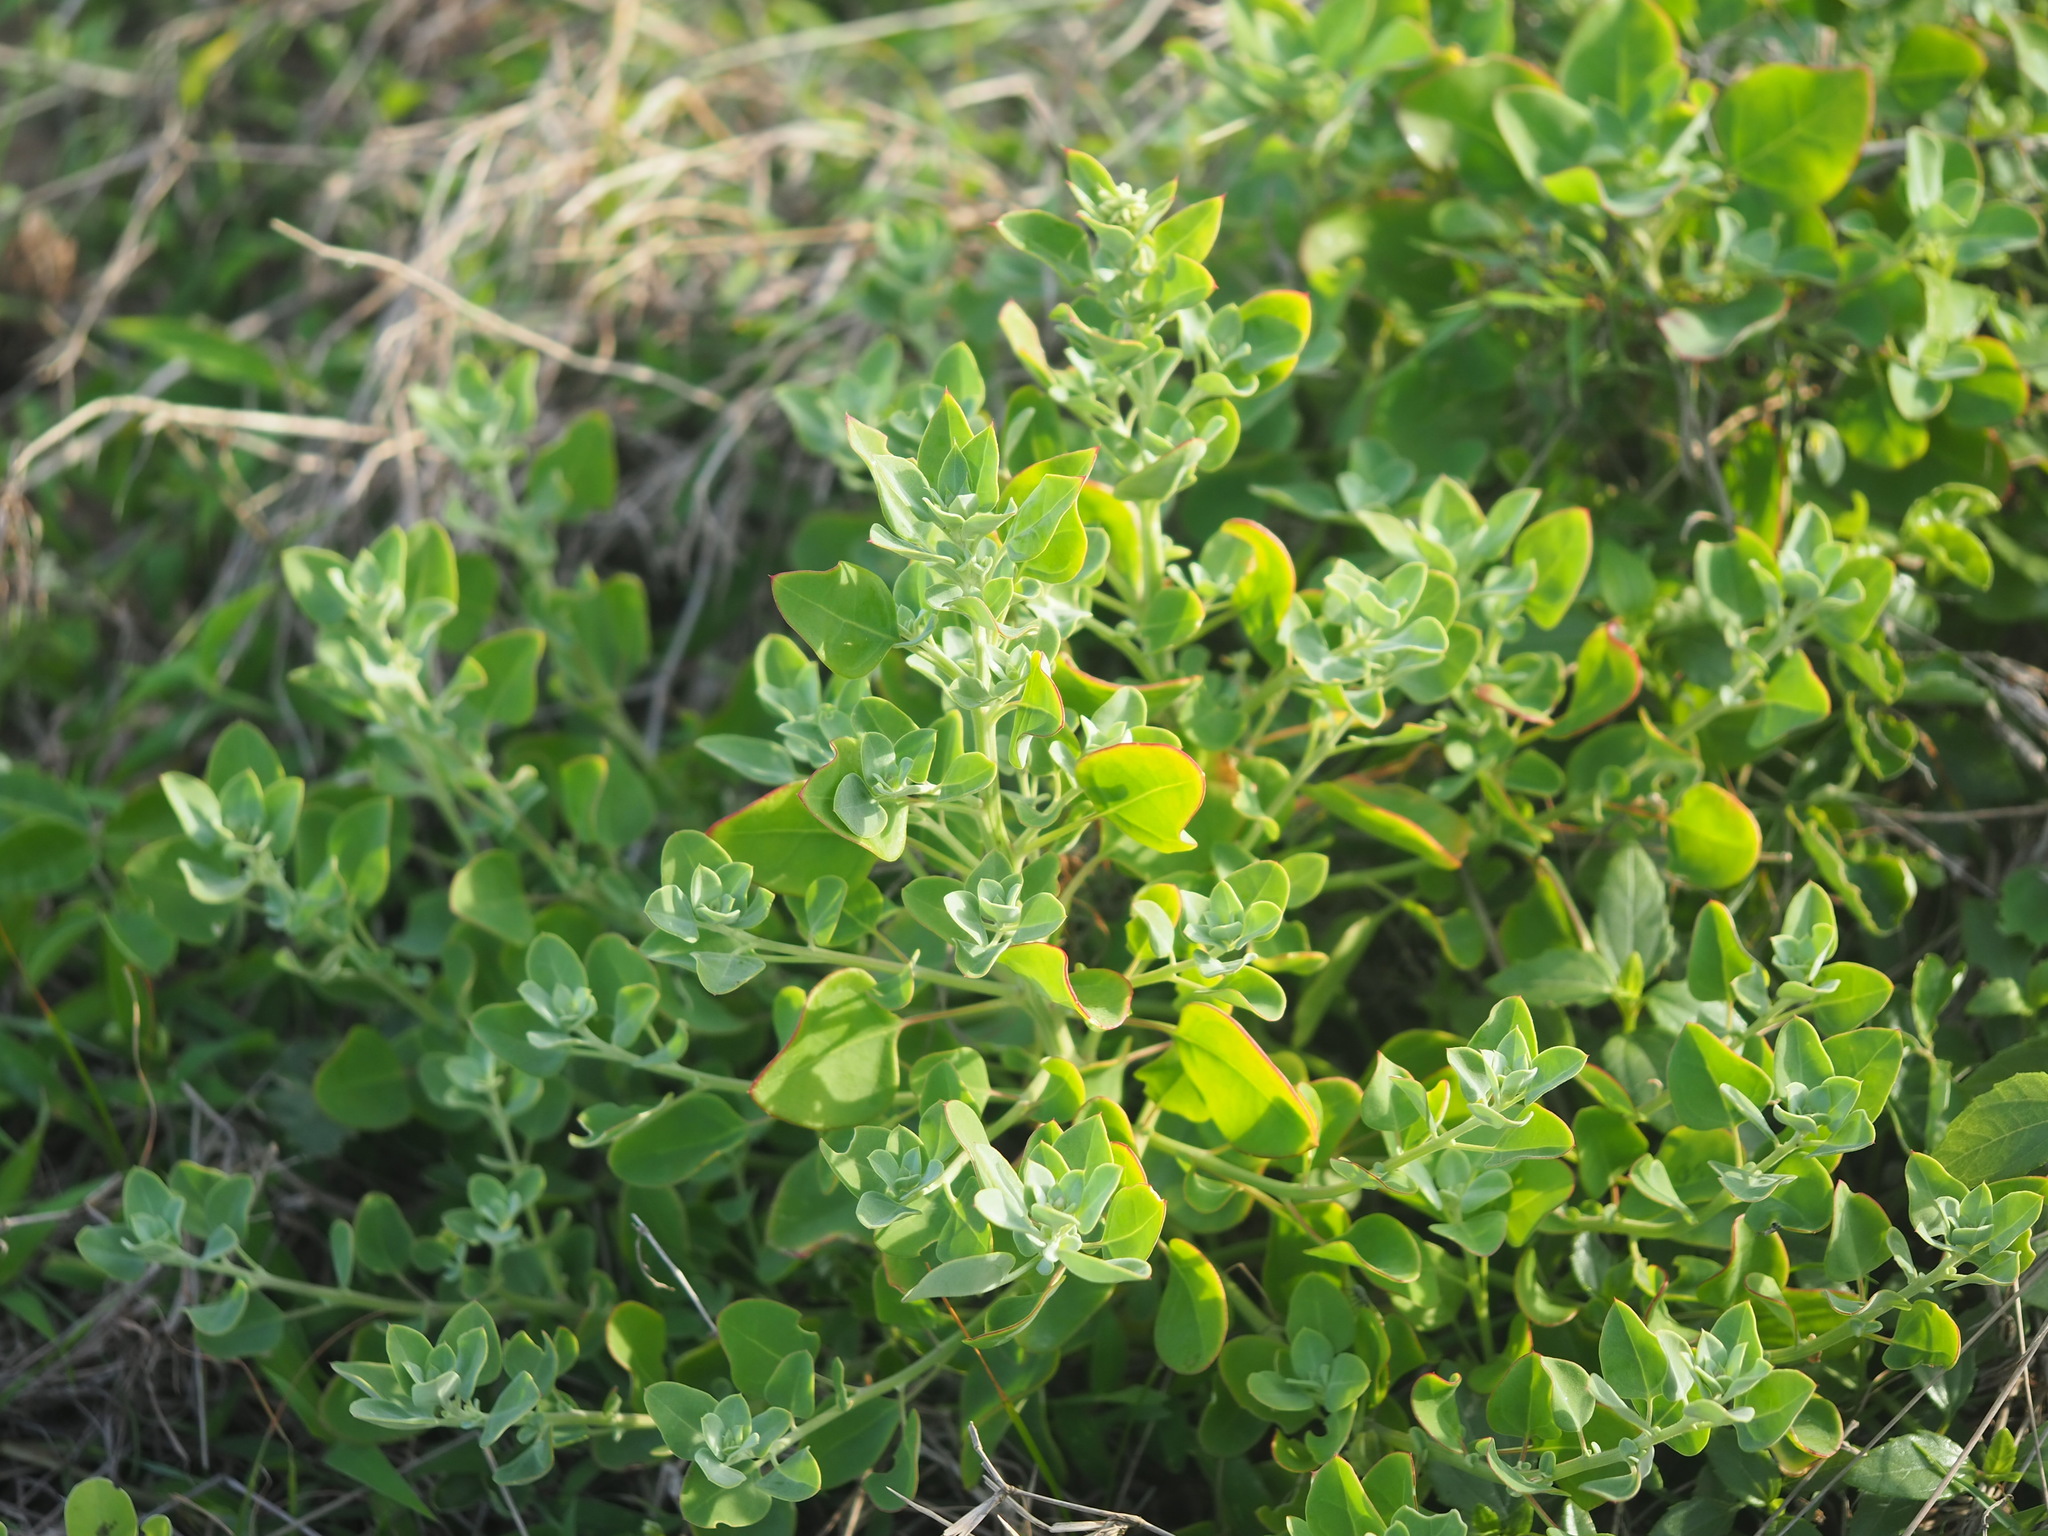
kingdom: Plantae
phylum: Tracheophyta
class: Magnoliopsida
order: Caryophyllales
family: Amaranthaceae
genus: Chenopodium
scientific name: Chenopodium acuminatum
